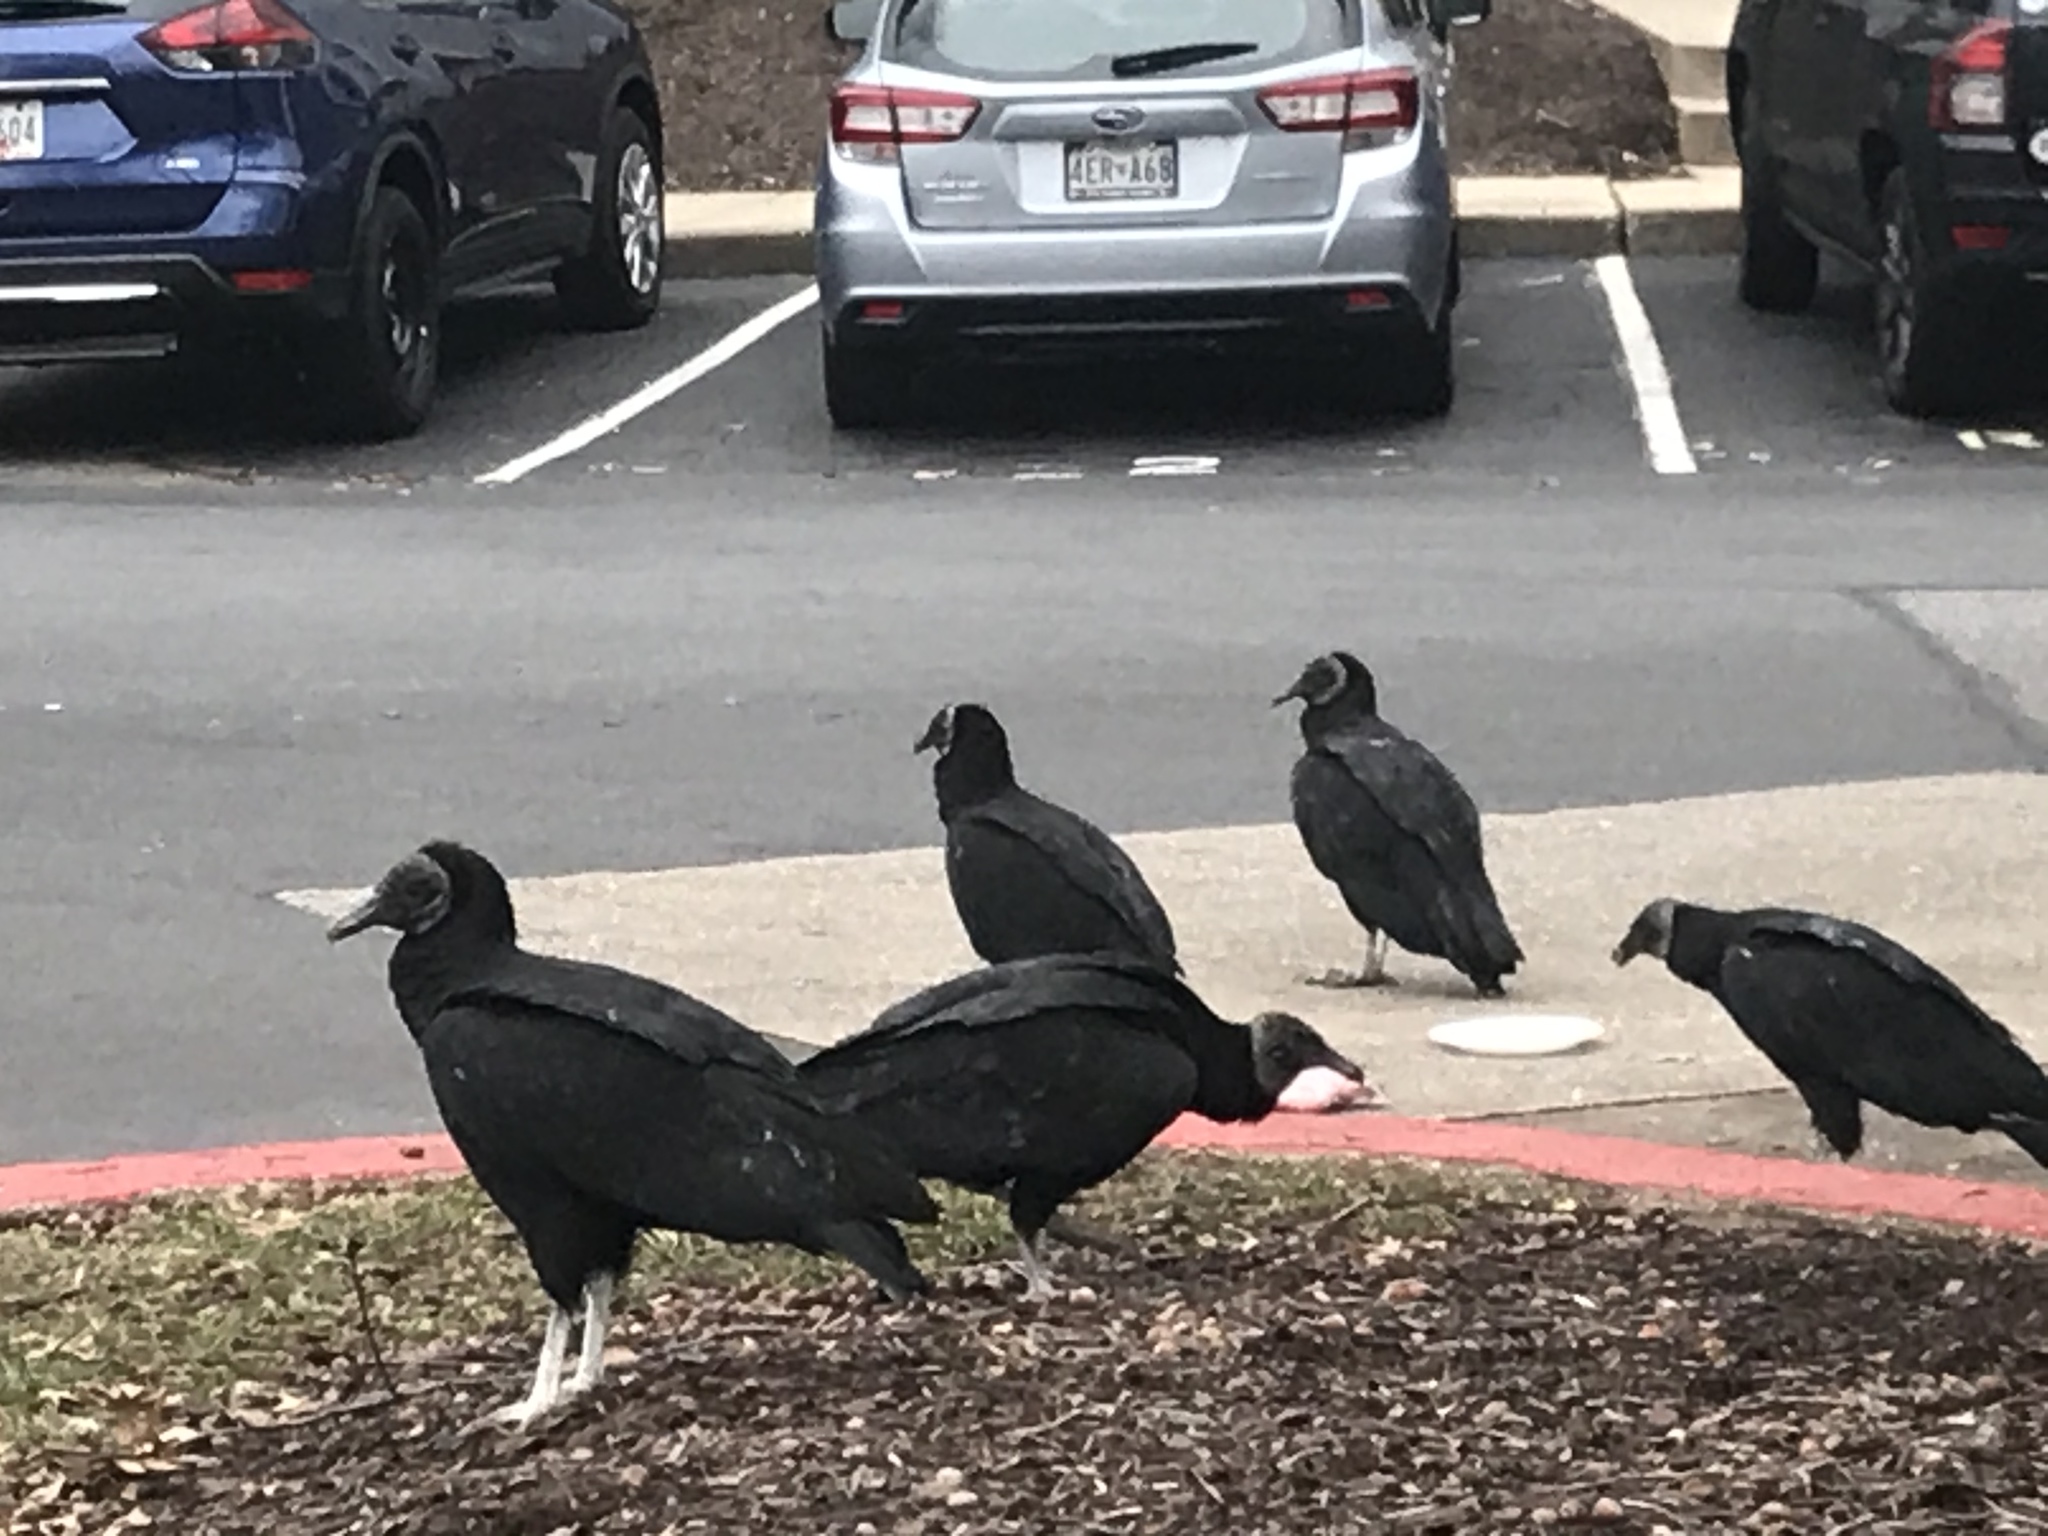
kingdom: Animalia
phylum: Chordata
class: Aves
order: Accipitriformes
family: Cathartidae
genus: Coragyps
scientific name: Coragyps atratus
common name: Black vulture
